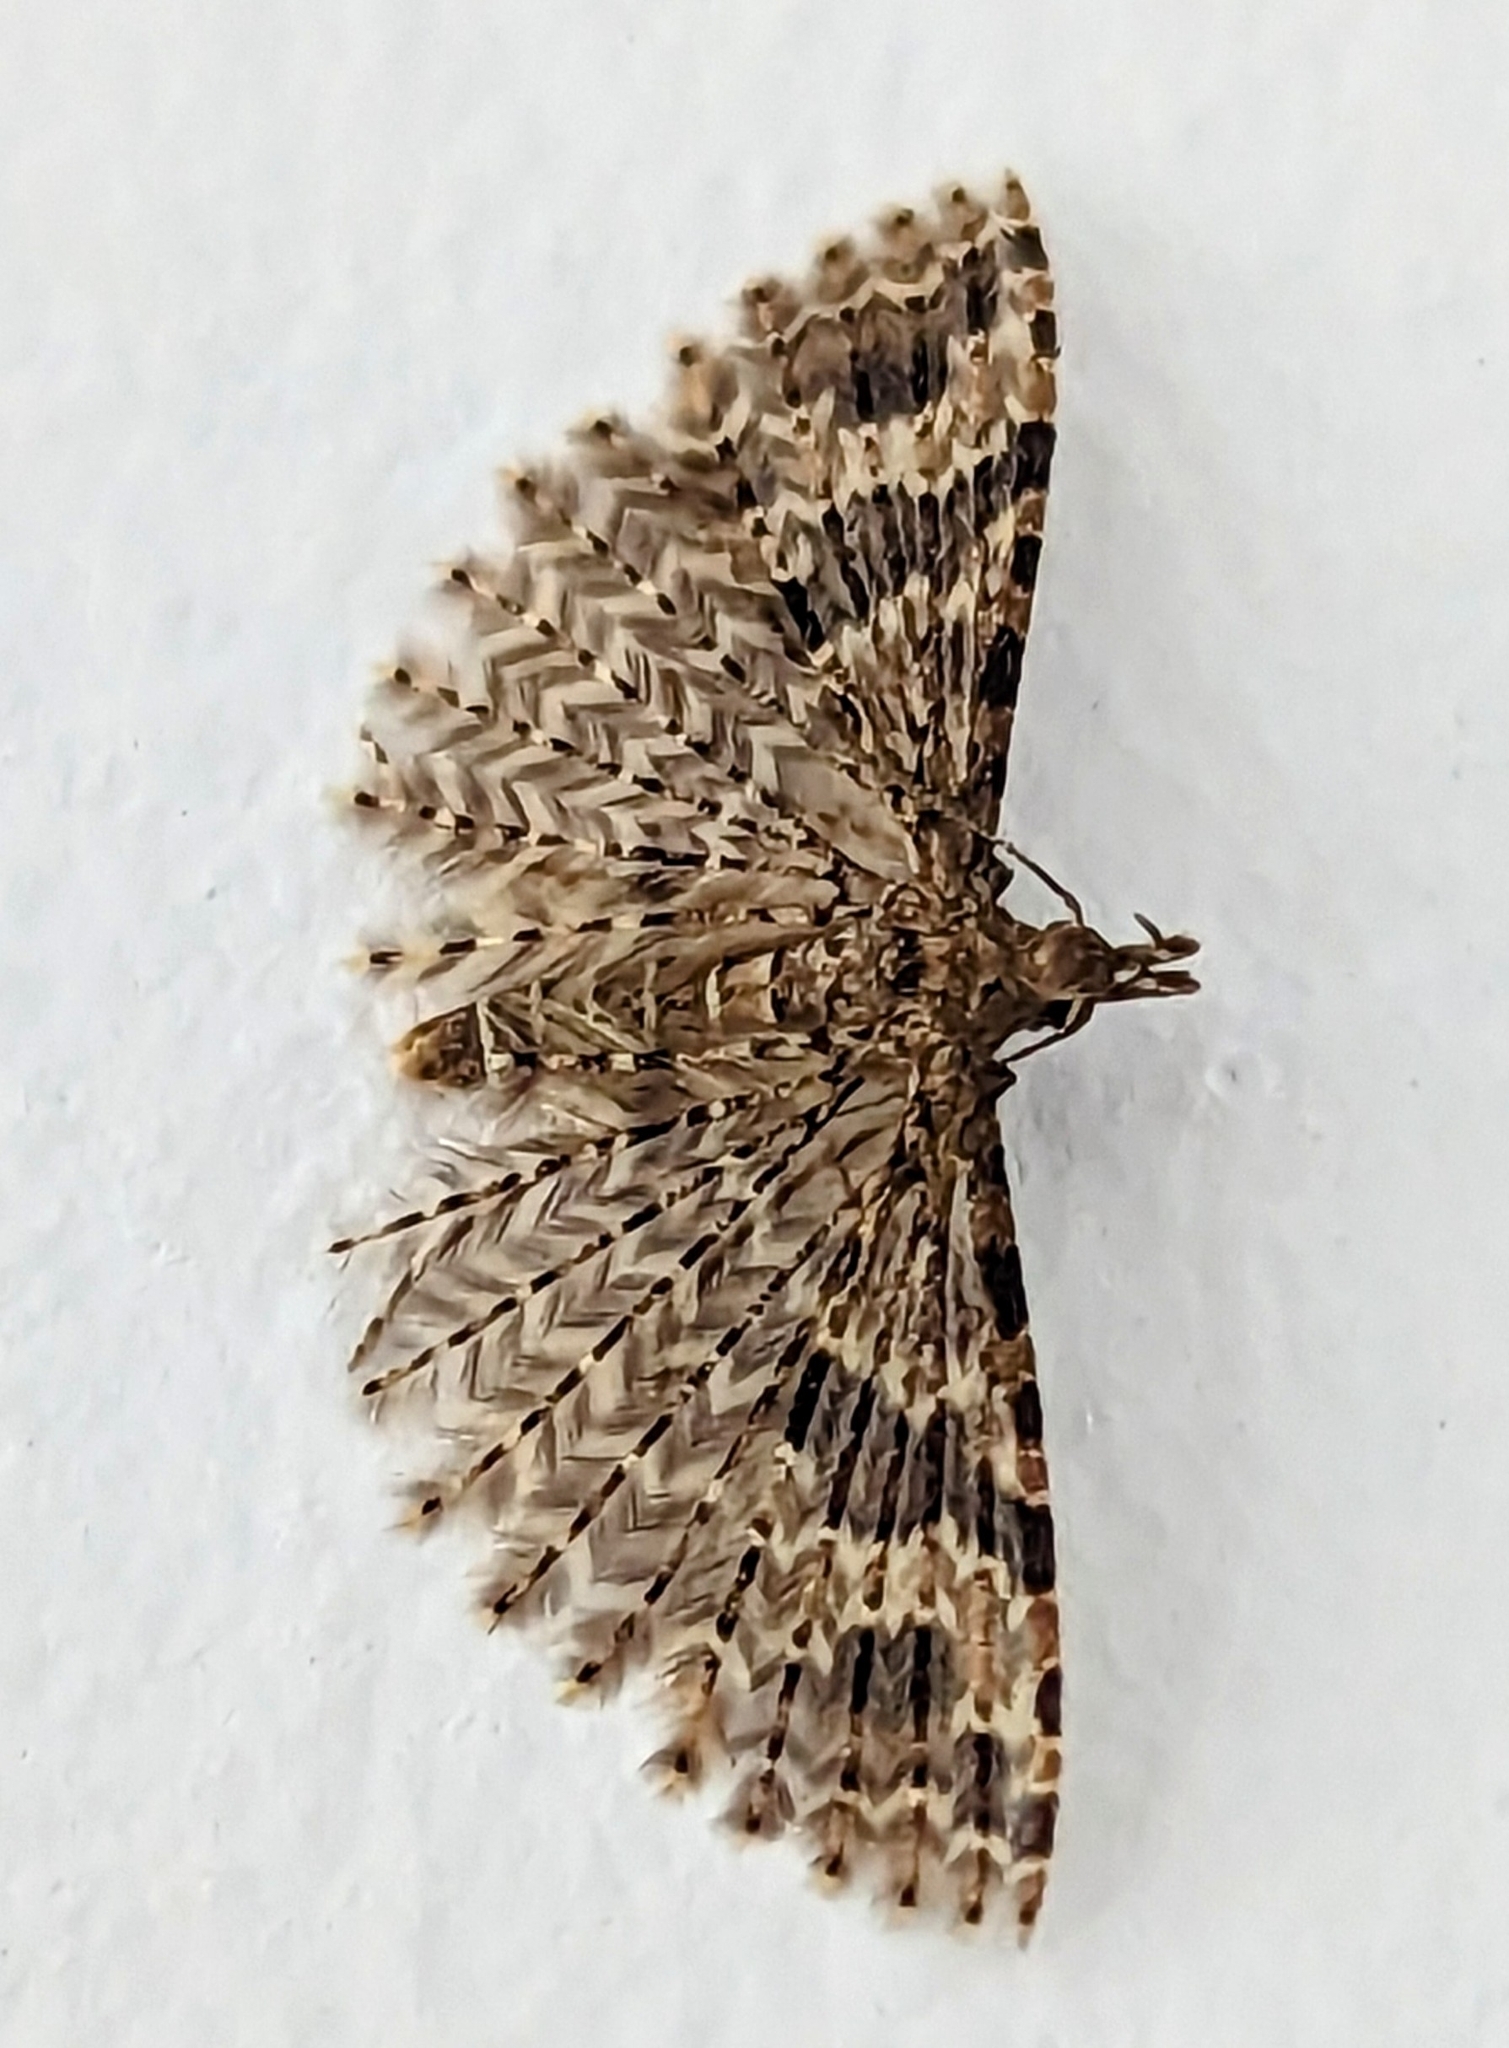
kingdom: Animalia
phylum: Arthropoda
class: Insecta
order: Lepidoptera
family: Alucitidae
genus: Alucita
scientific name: Alucita hexadactyla
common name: Twenty-plume moth
